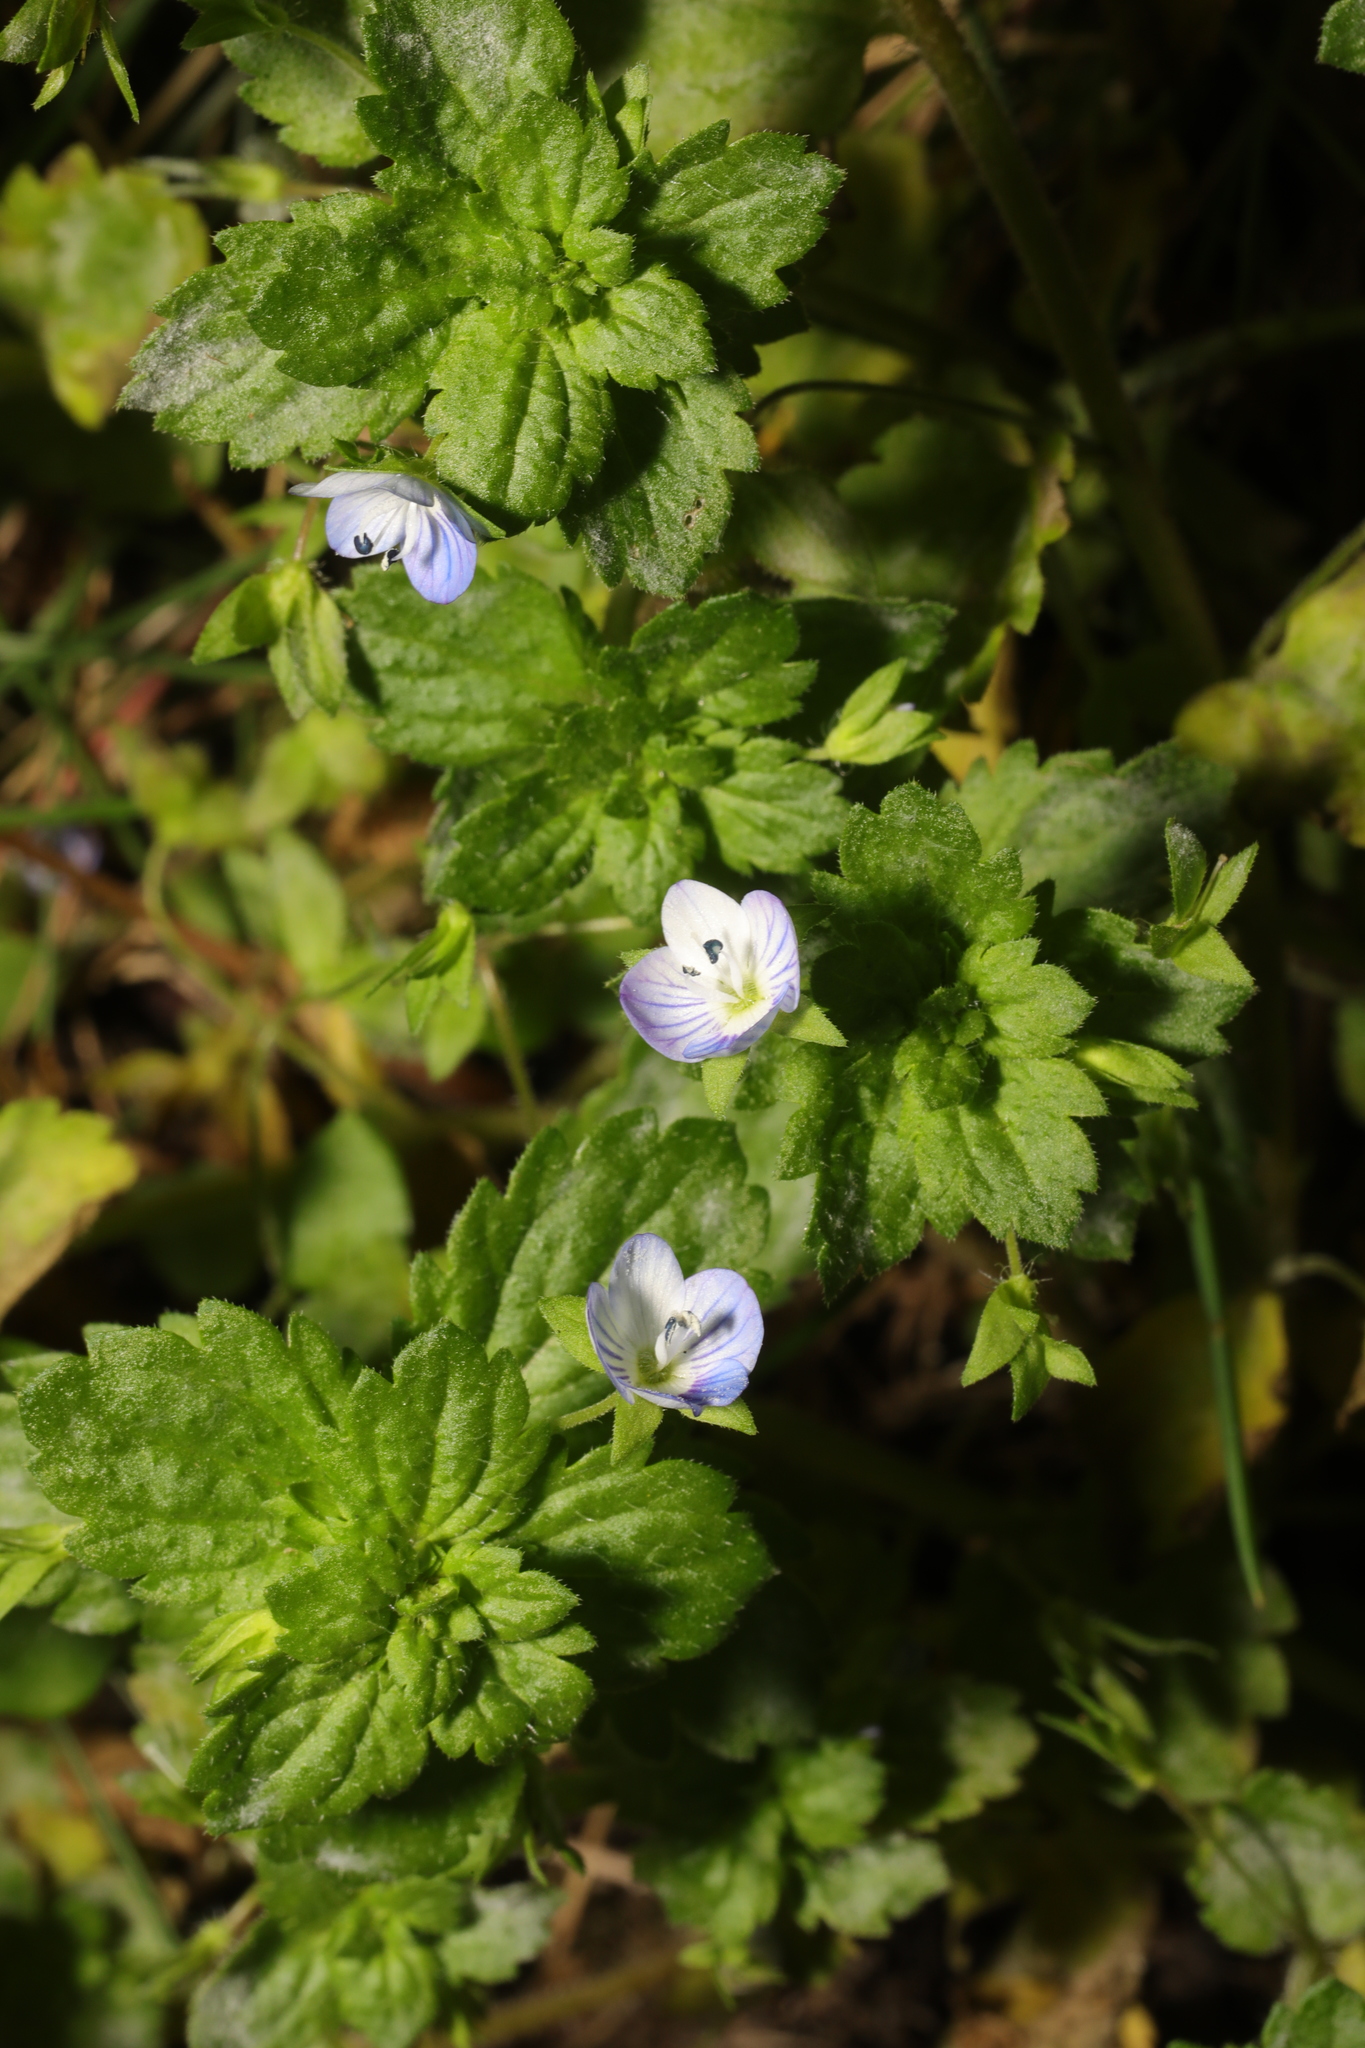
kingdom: Plantae
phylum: Tracheophyta
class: Magnoliopsida
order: Lamiales
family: Plantaginaceae
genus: Veronica
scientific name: Veronica persica
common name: Common field-speedwell
